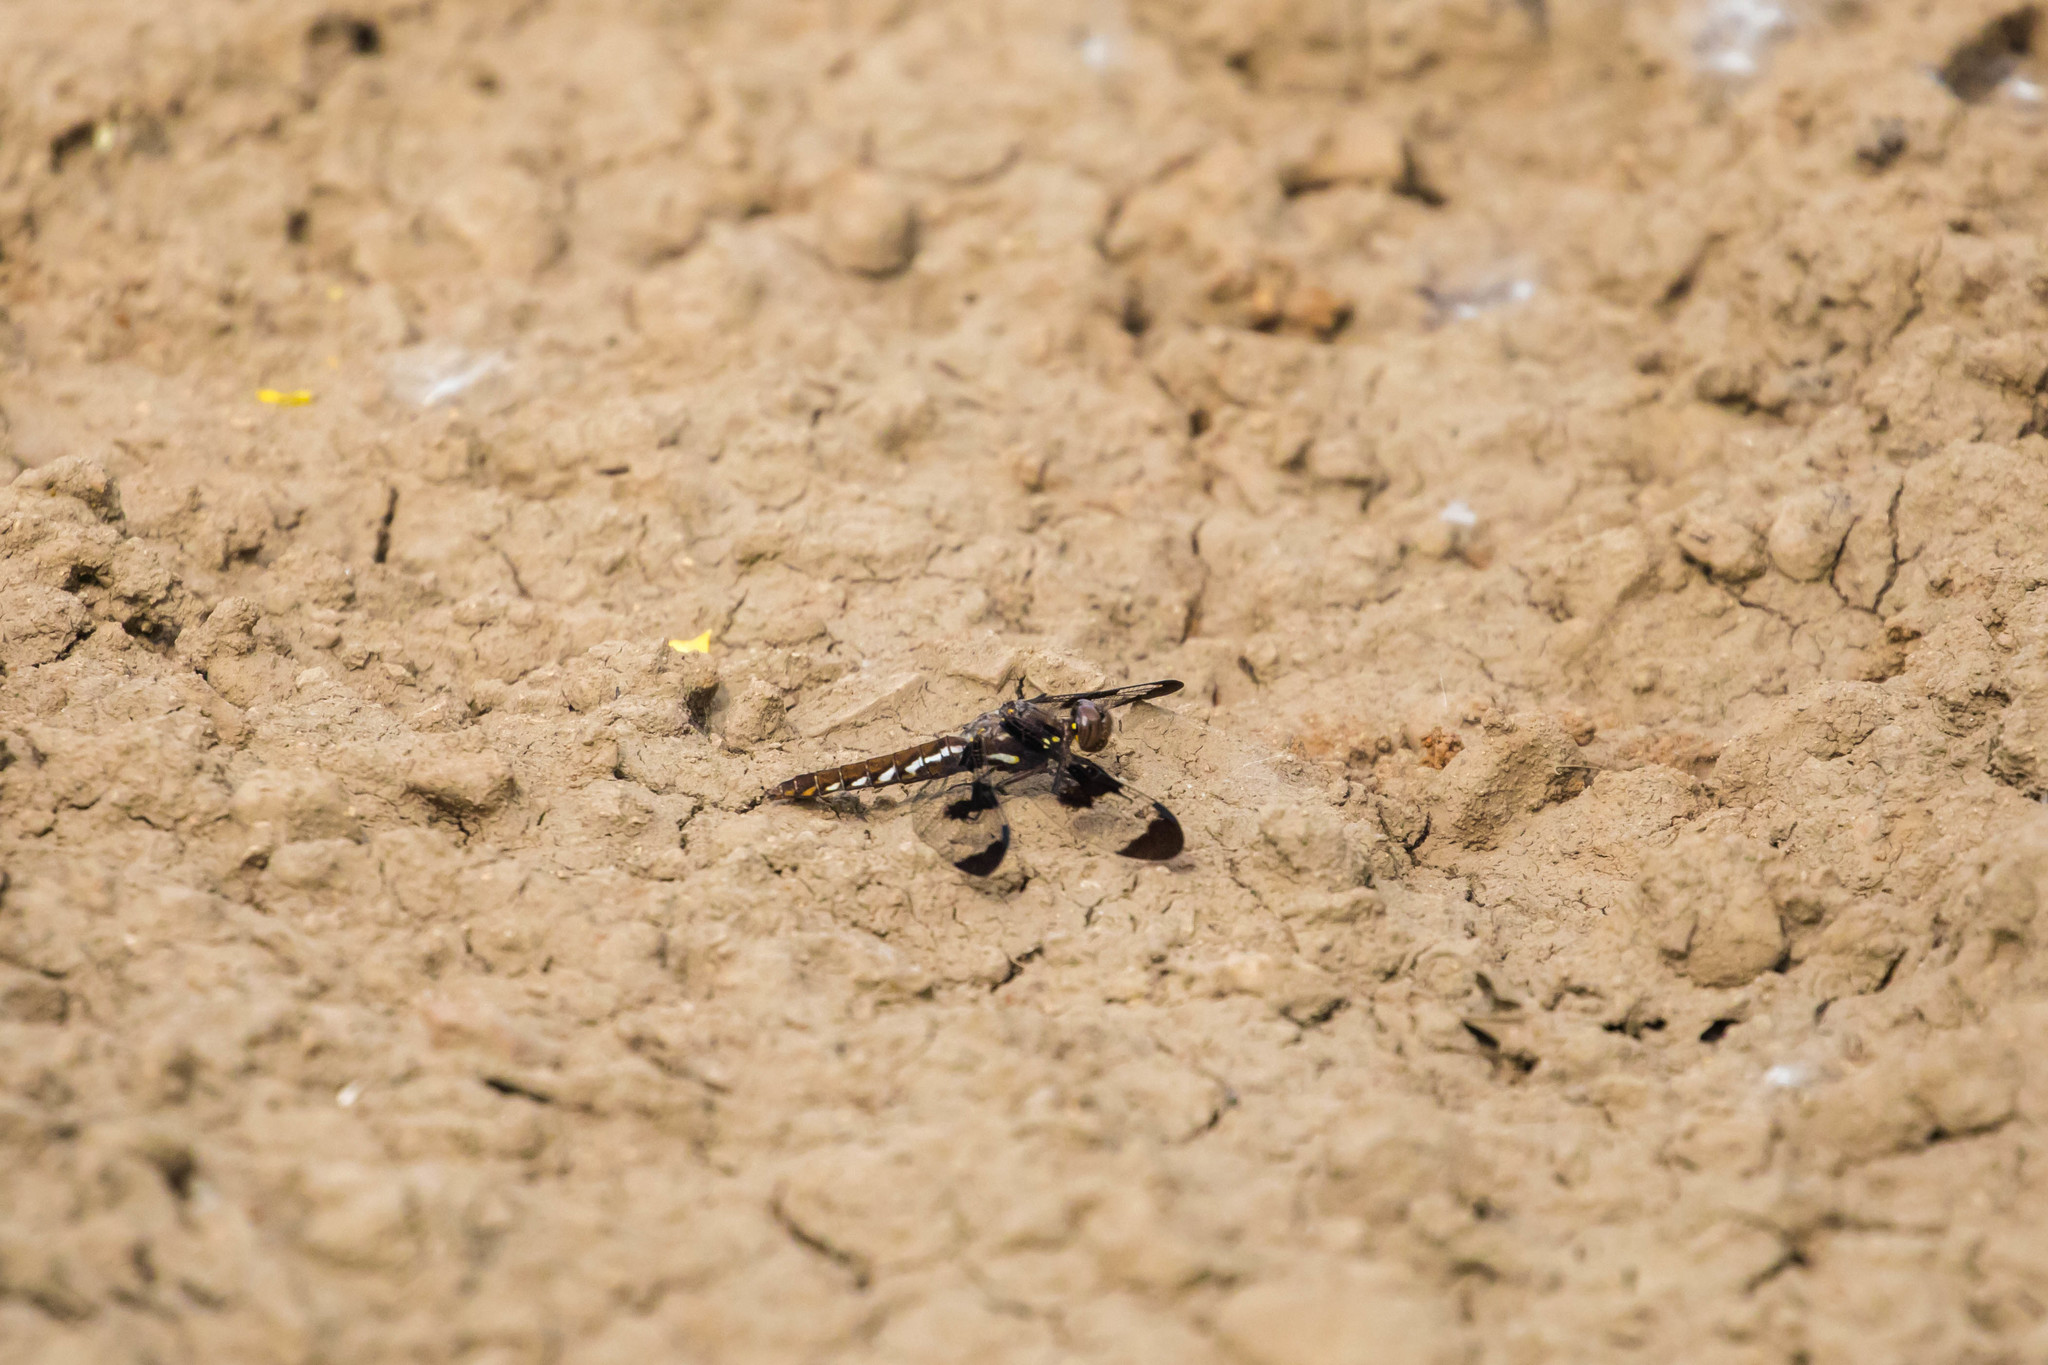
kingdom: Animalia
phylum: Arthropoda
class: Insecta
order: Odonata
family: Libellulidae
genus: Plathemis
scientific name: Plathemis lydia
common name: Common whitetail
